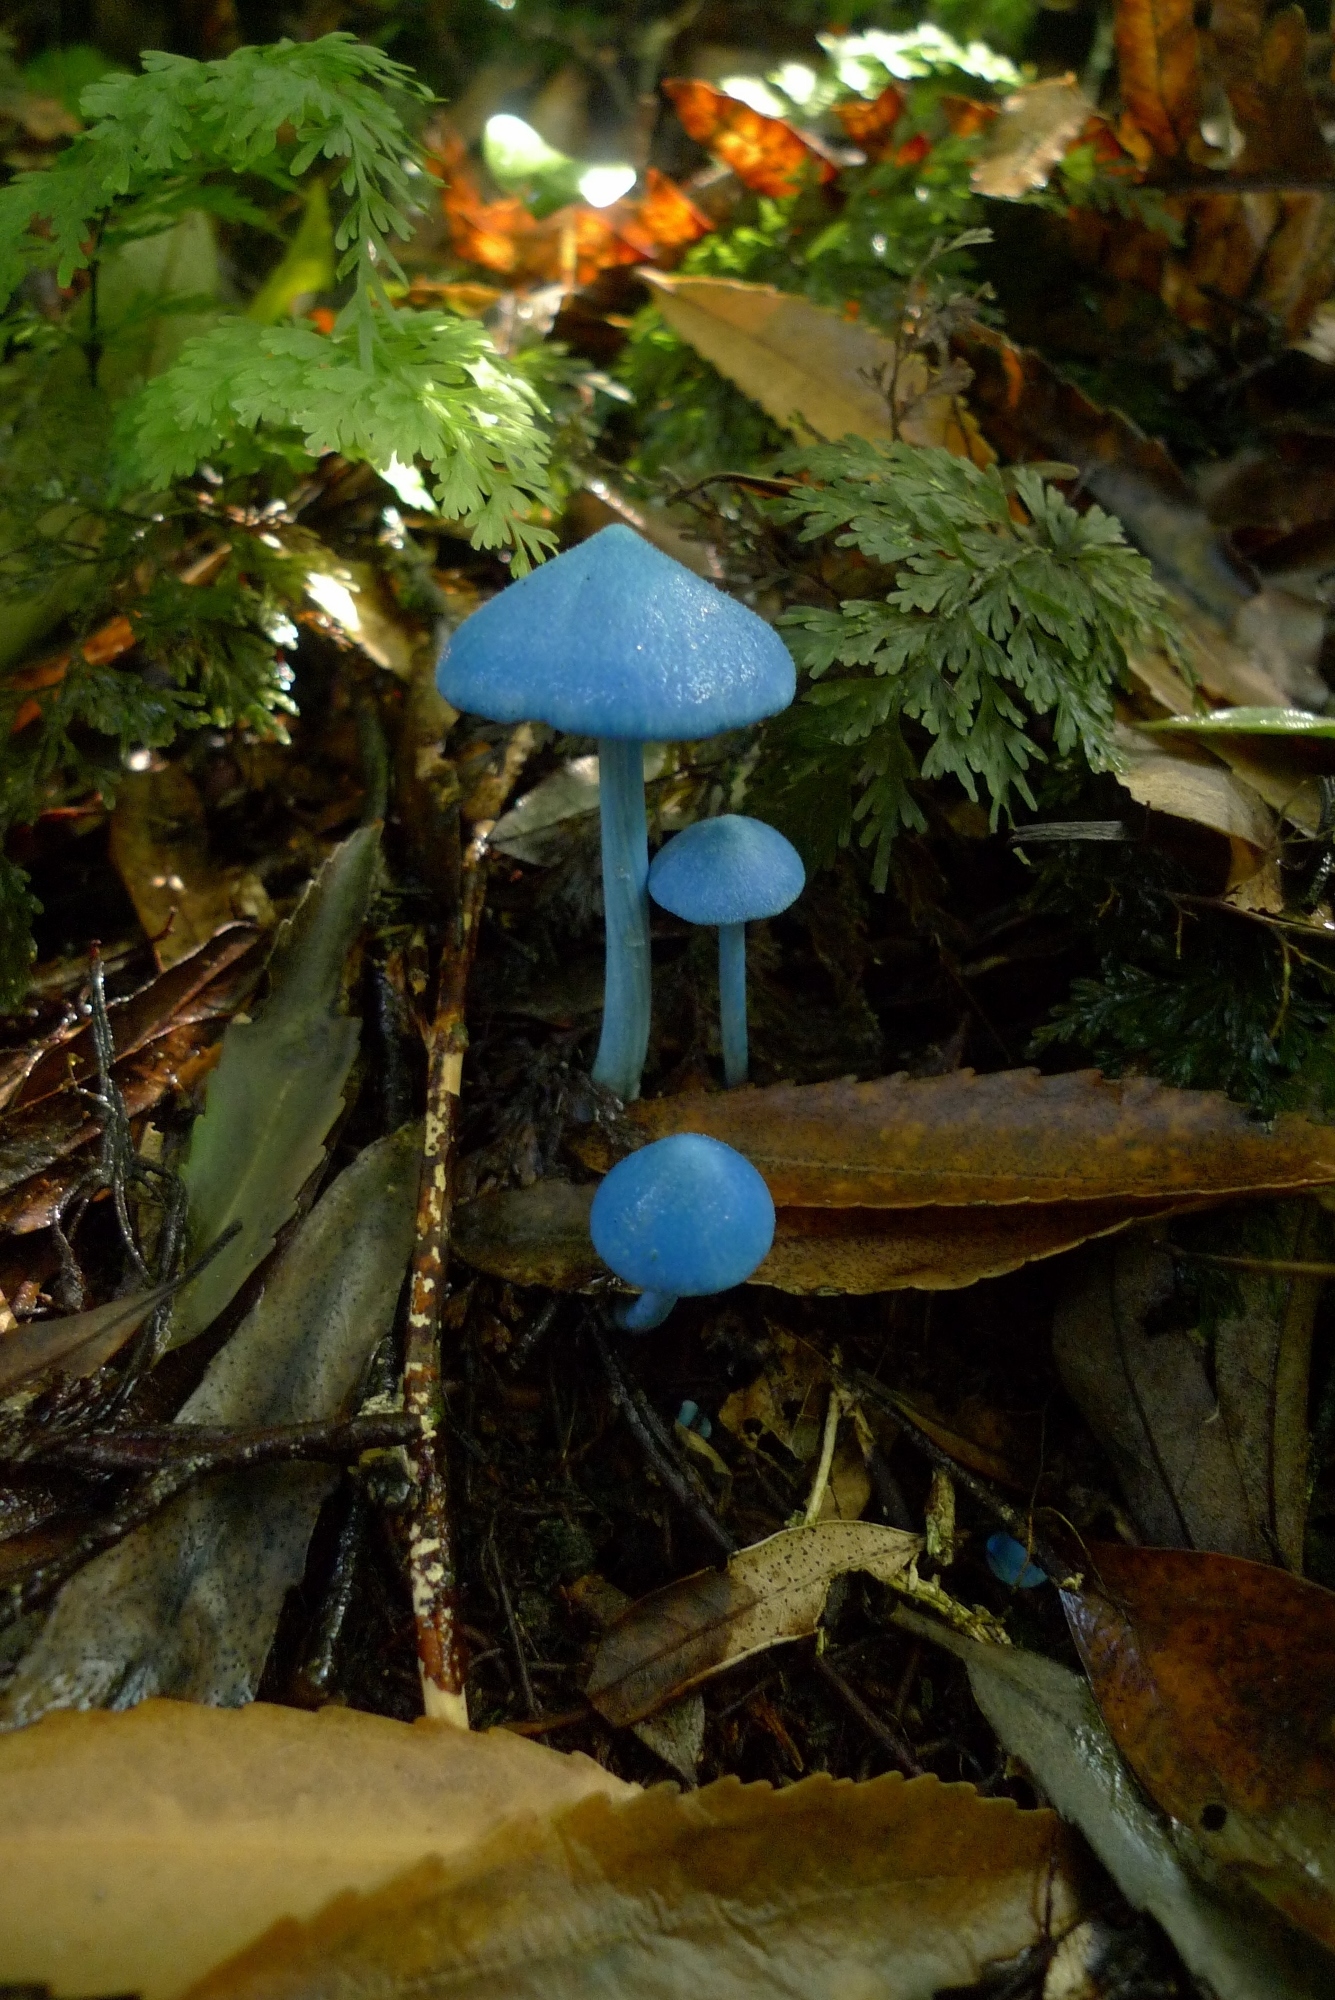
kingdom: Fungi
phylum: Basidiomycota
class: Agaricomycetes
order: Agaricales
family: Entolomataceae
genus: Entoloma
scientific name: Entoloma hochstetteri
